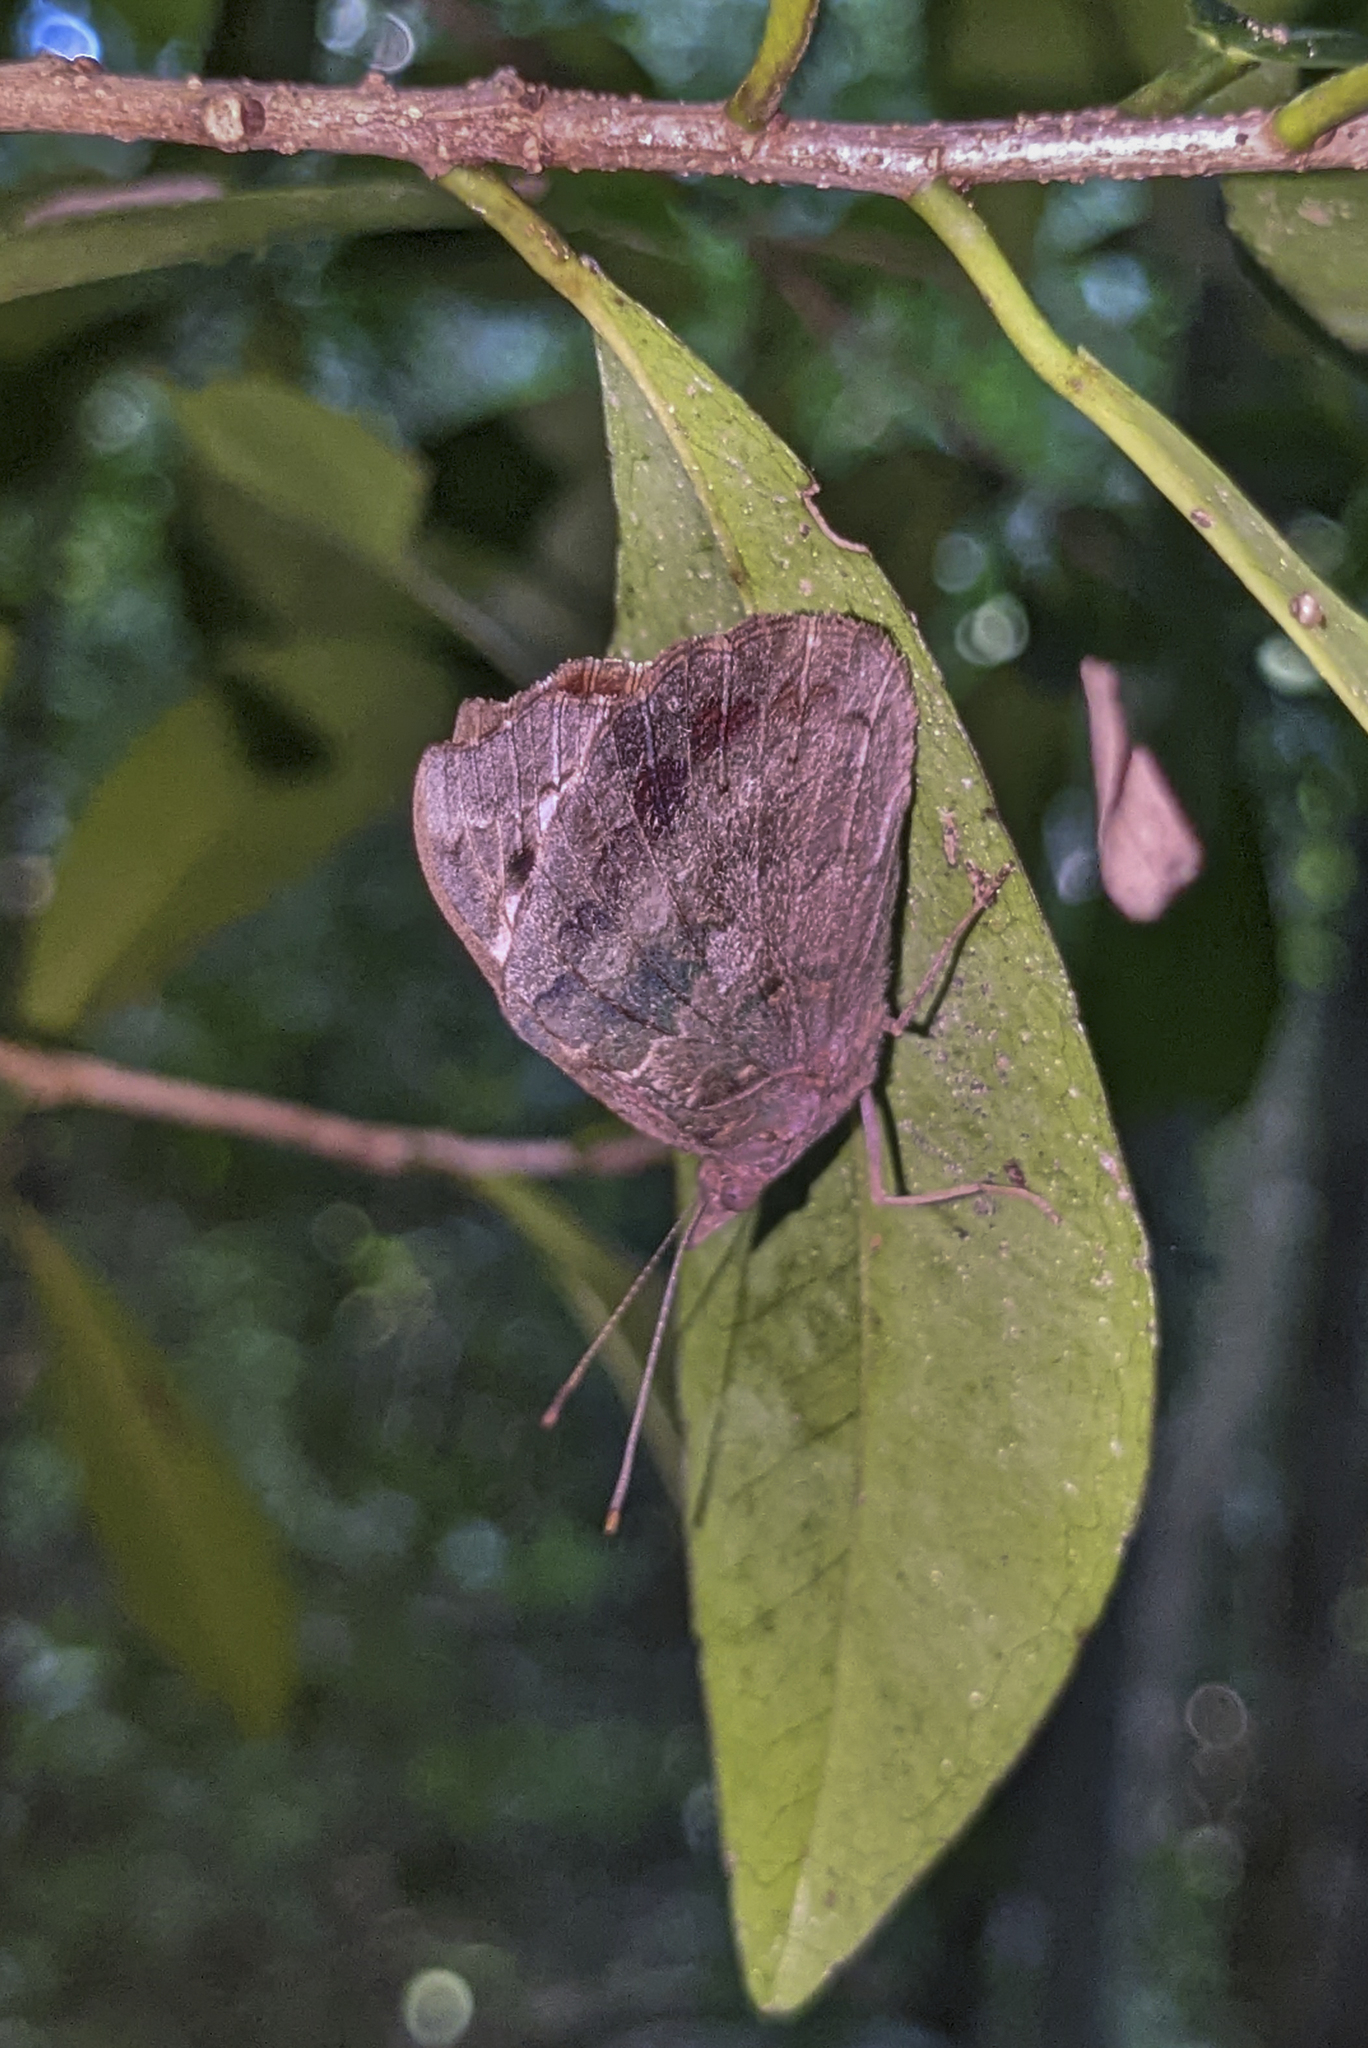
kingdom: Animalia
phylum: Arthropoda
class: Insecta
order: Lepidoptera
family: Nymphalidae
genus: Eunica
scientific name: Eunica tatila
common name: Florida purplewing
